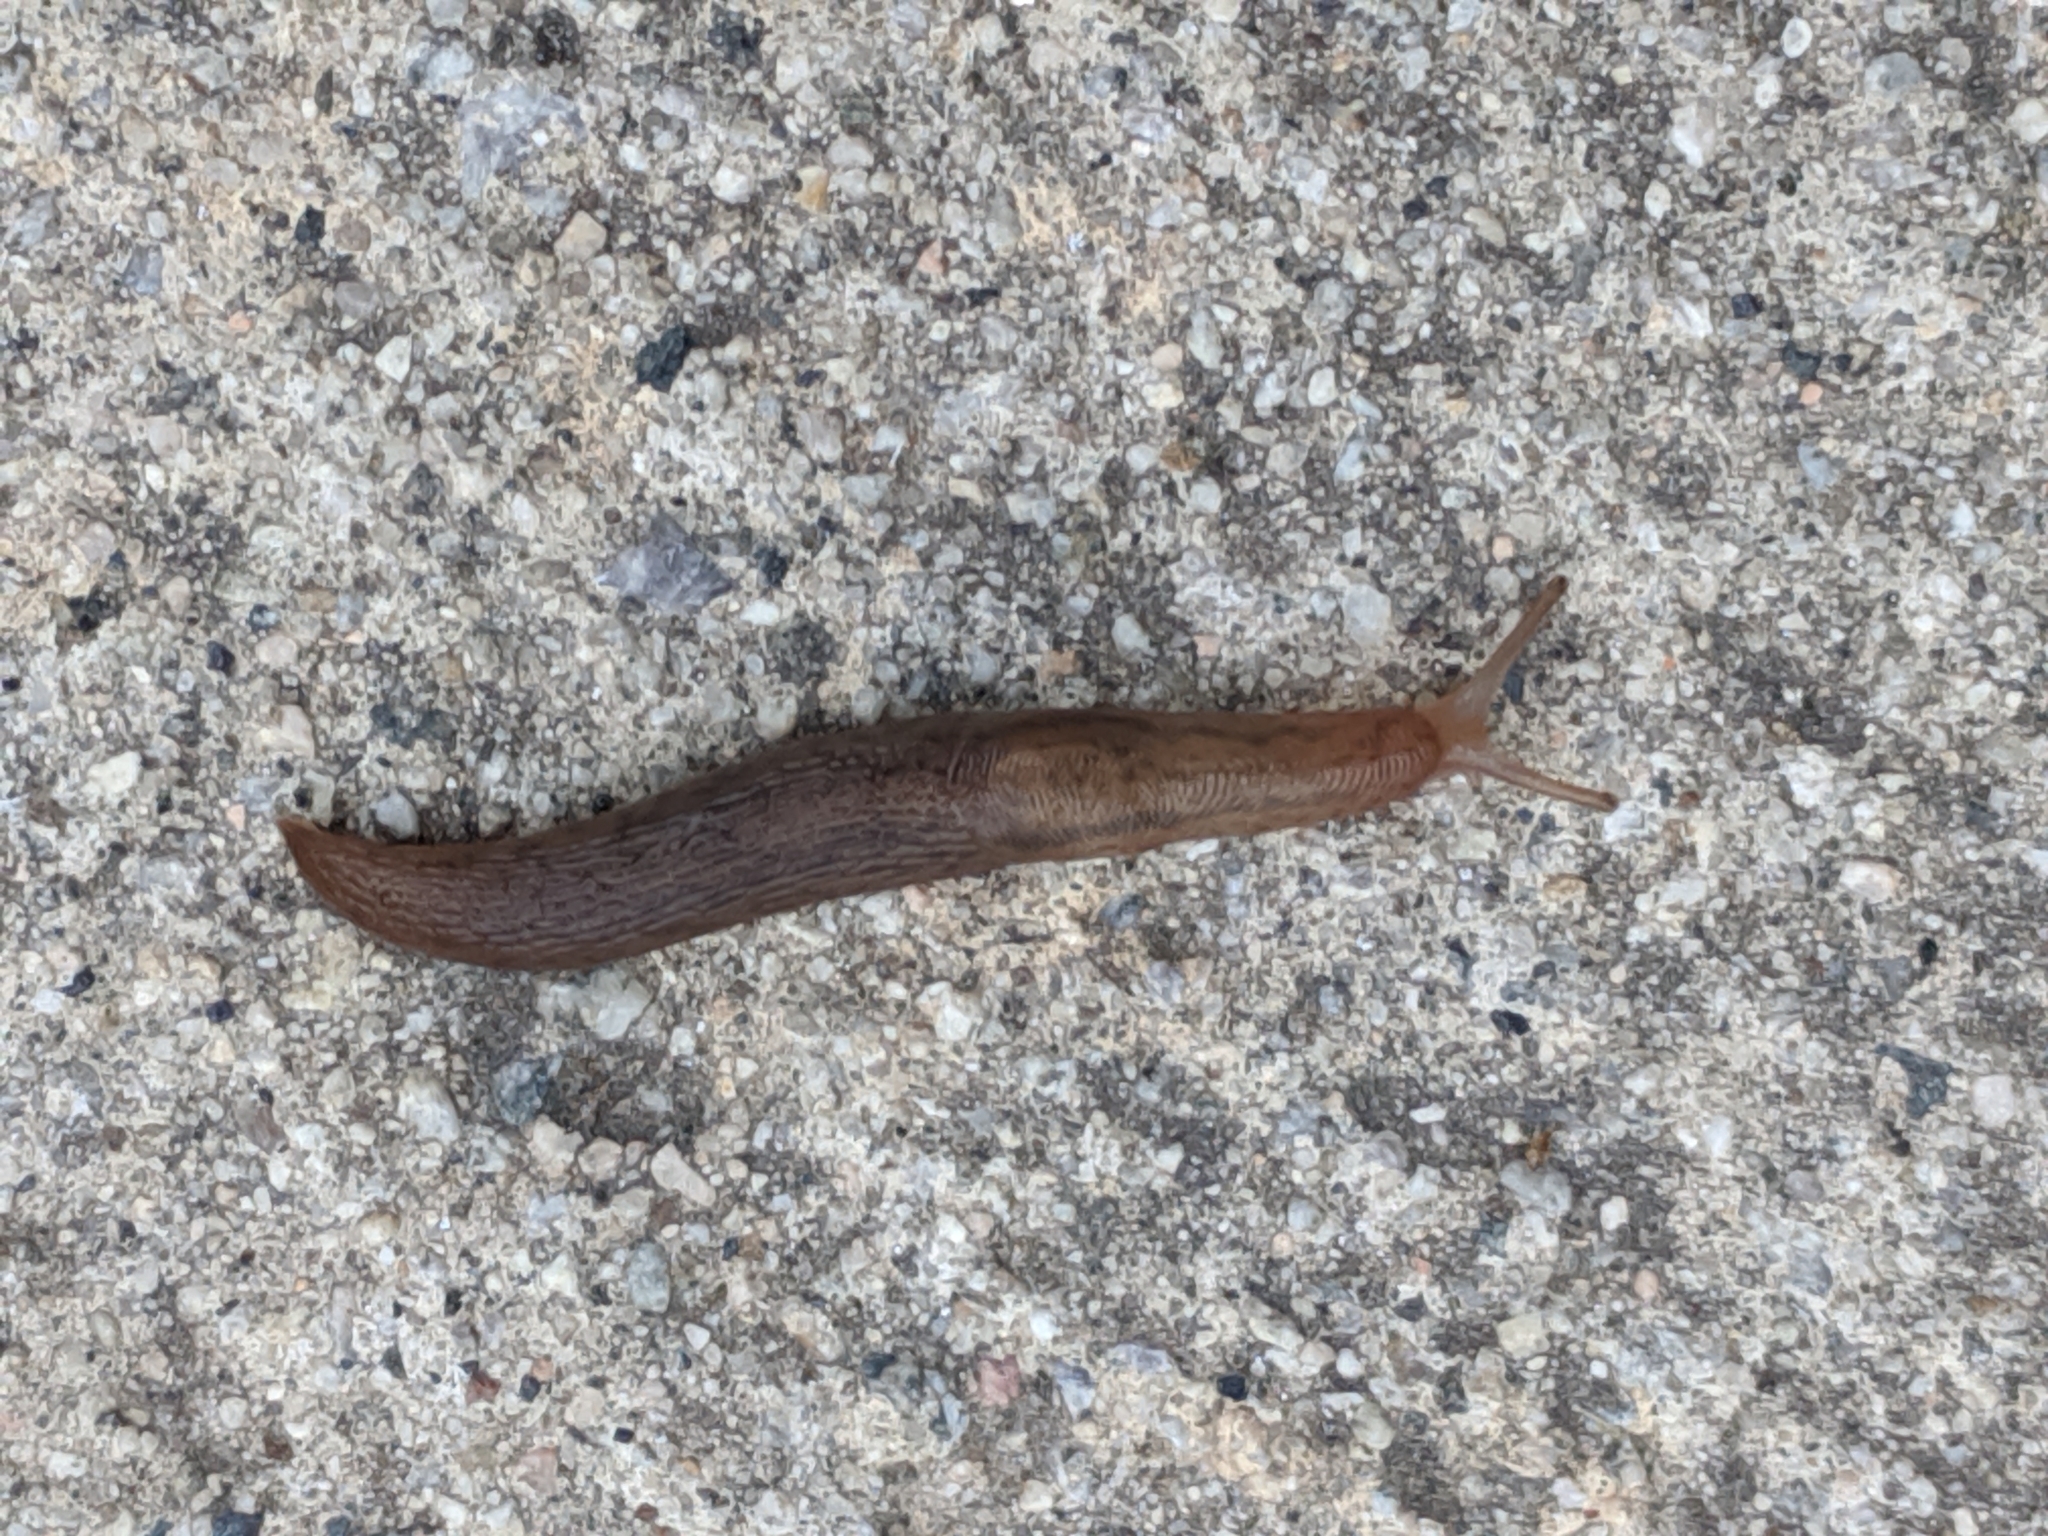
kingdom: Animalia
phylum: Mollusca
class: Gastropoda
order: Stylommatophora
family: Limacidae
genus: Ambigolimax
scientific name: Ambigolimax
